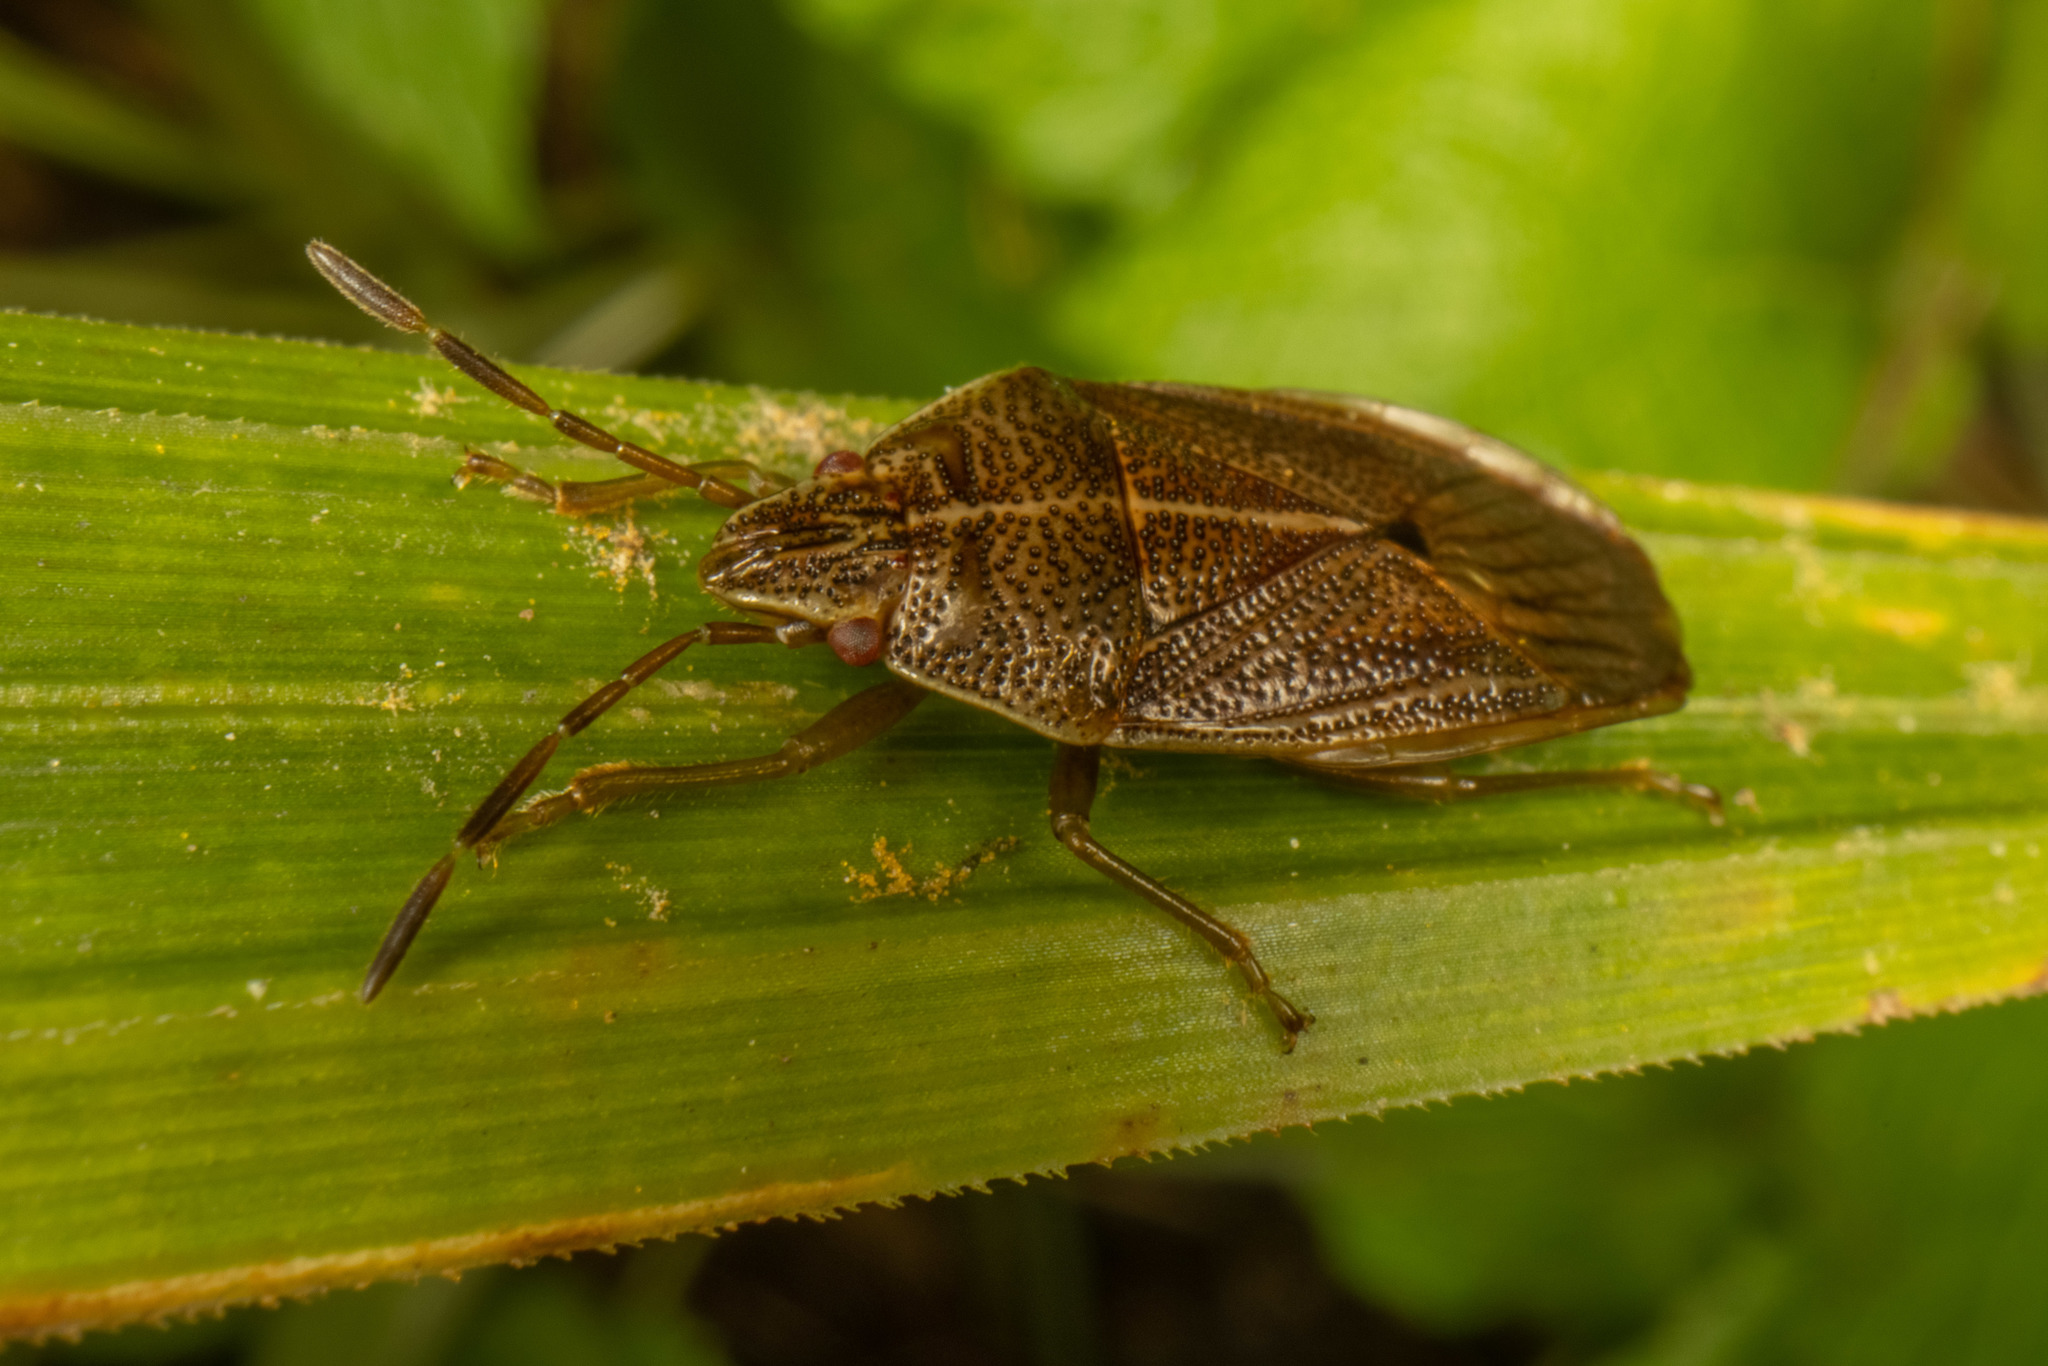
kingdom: Animalia
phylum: Arthropoda
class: Insecta
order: Hemiptera
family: Acanthosomatidae
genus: Rhopalimorpha
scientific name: Rhopalimorpha obscura
